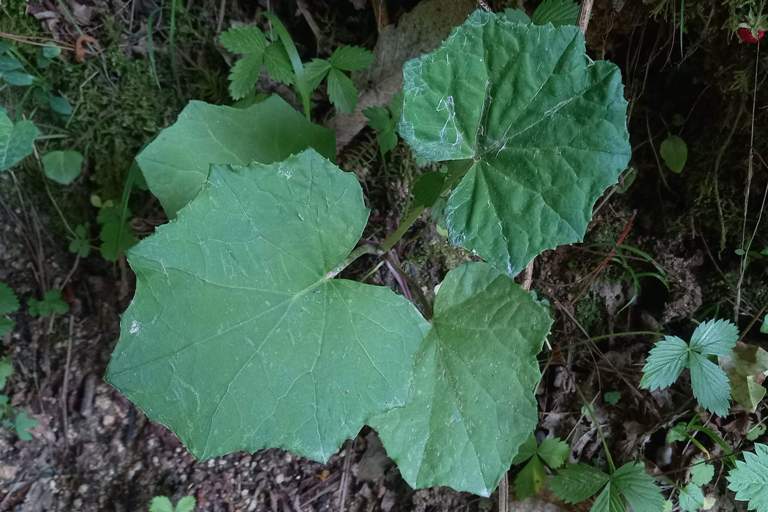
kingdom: Plantae
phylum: Tracheophyta
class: Magnoliopsida
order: Asterales
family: Asteraceae
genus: Tussilago
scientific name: Tussilago farfara
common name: Coltsfoot
